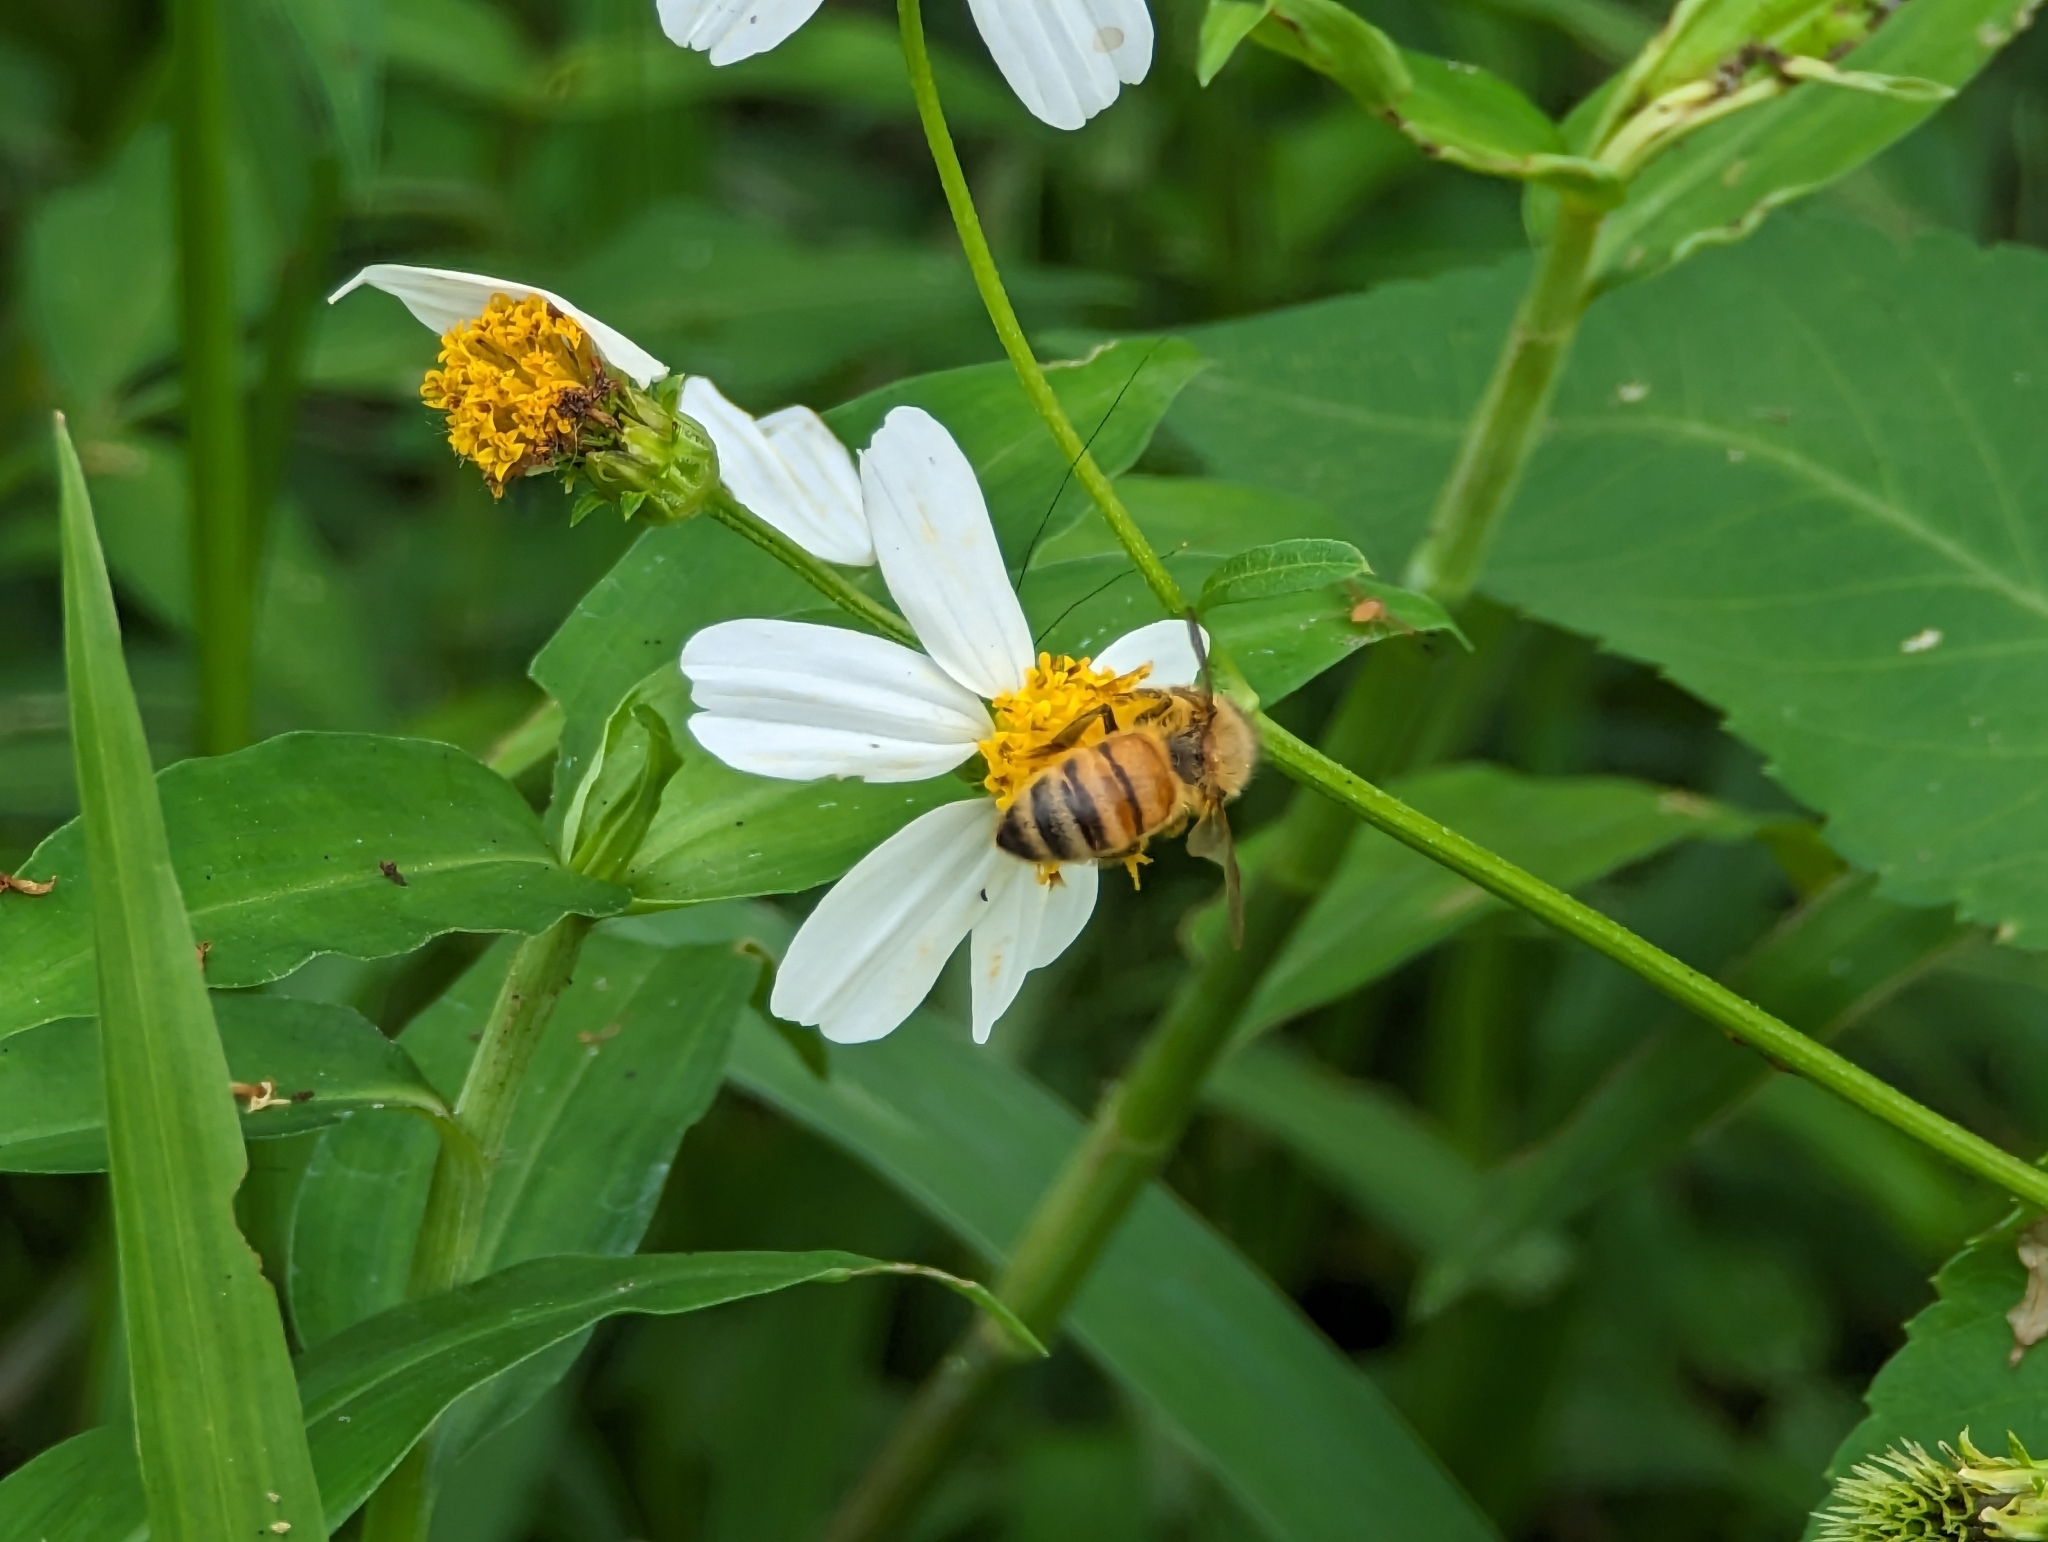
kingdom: Animalia
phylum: Arthropoda
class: Insecta
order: Hymenoptera
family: Apidae
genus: Apis
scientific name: Apis mellifera
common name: Honey bee
